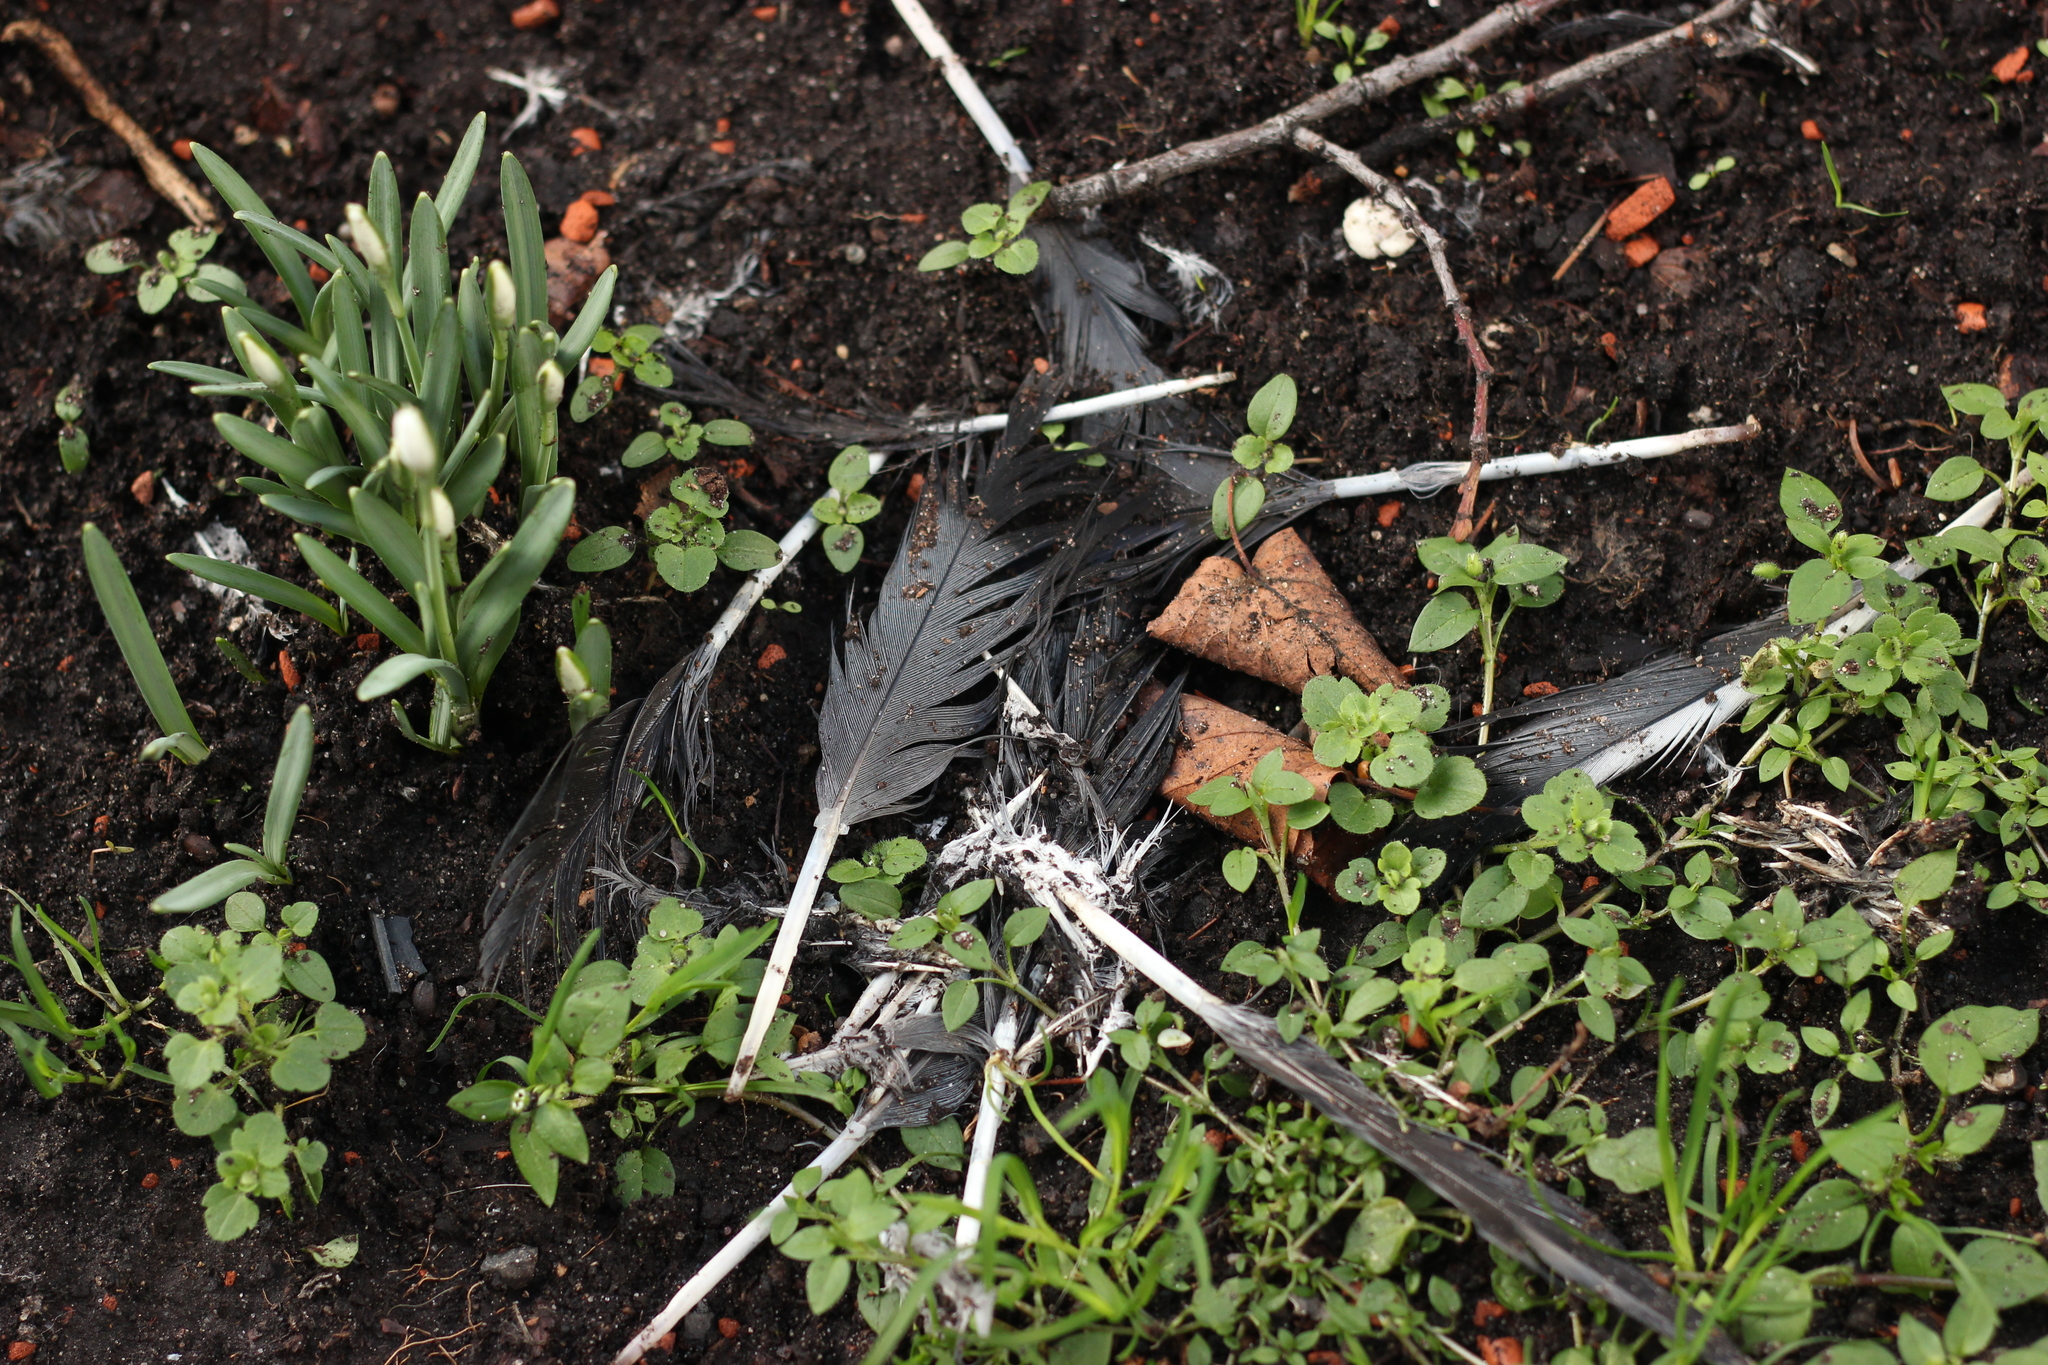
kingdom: Animalia
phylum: Chordata
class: Aves
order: Columbiformes
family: Columbidae
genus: Columba
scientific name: Columba livia
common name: Rock pigeon
